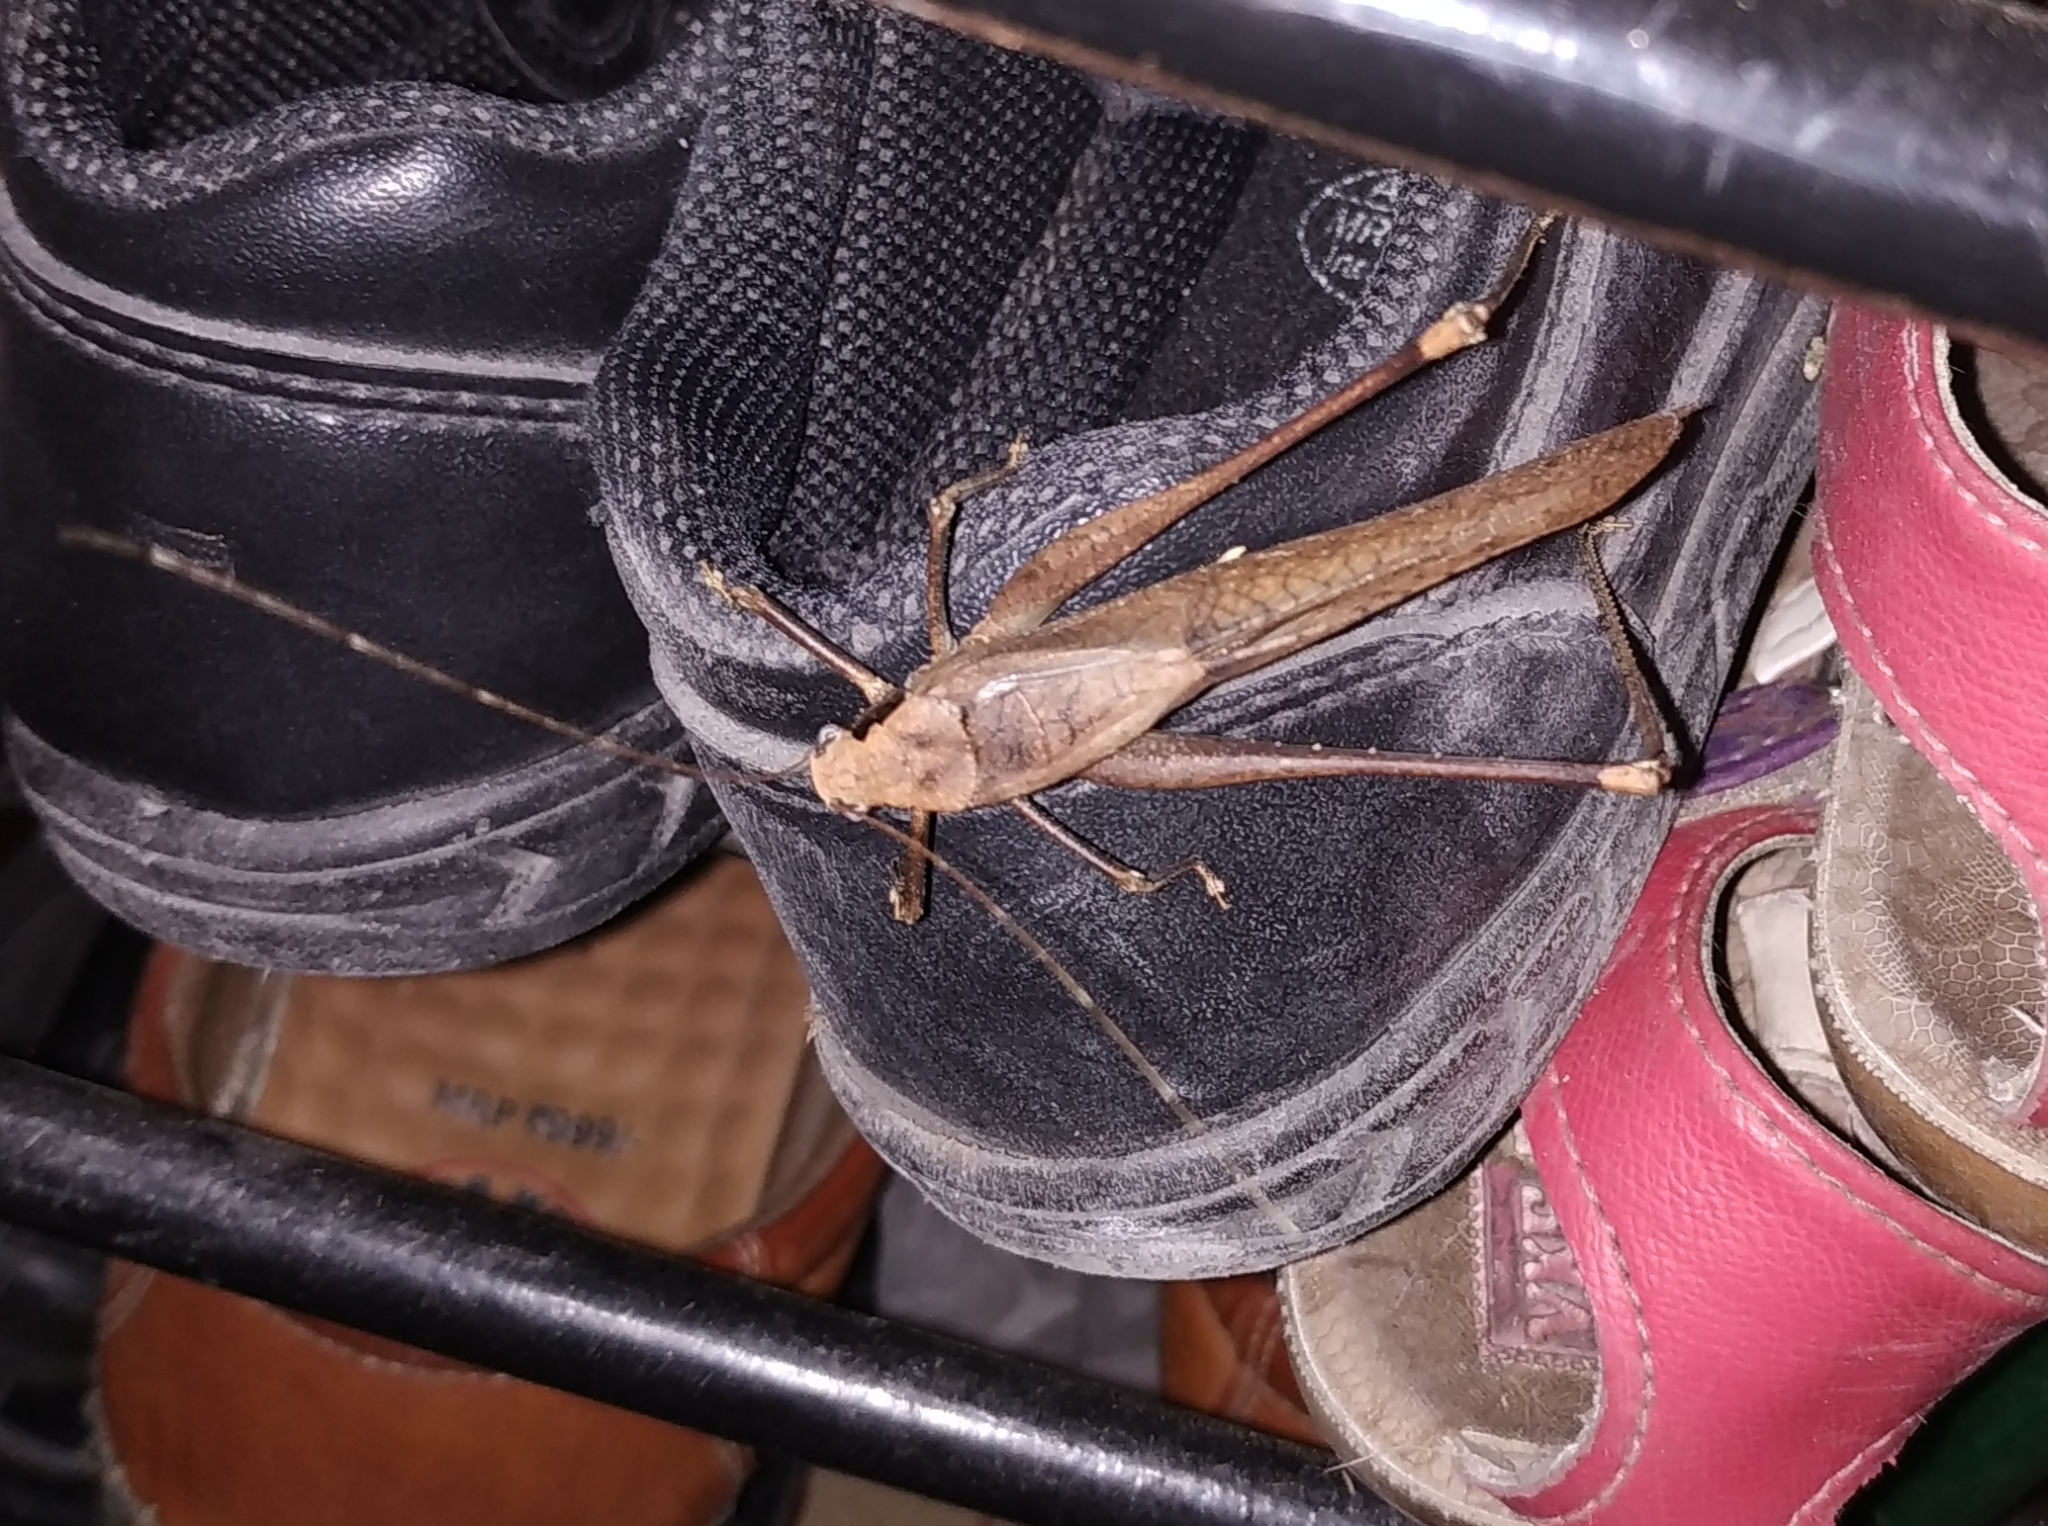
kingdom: Animalia
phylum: Arthropoda
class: Insecta
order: Orthoptera
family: Tettigoniidae
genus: Mecopoda
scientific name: Mecopoda elongata
